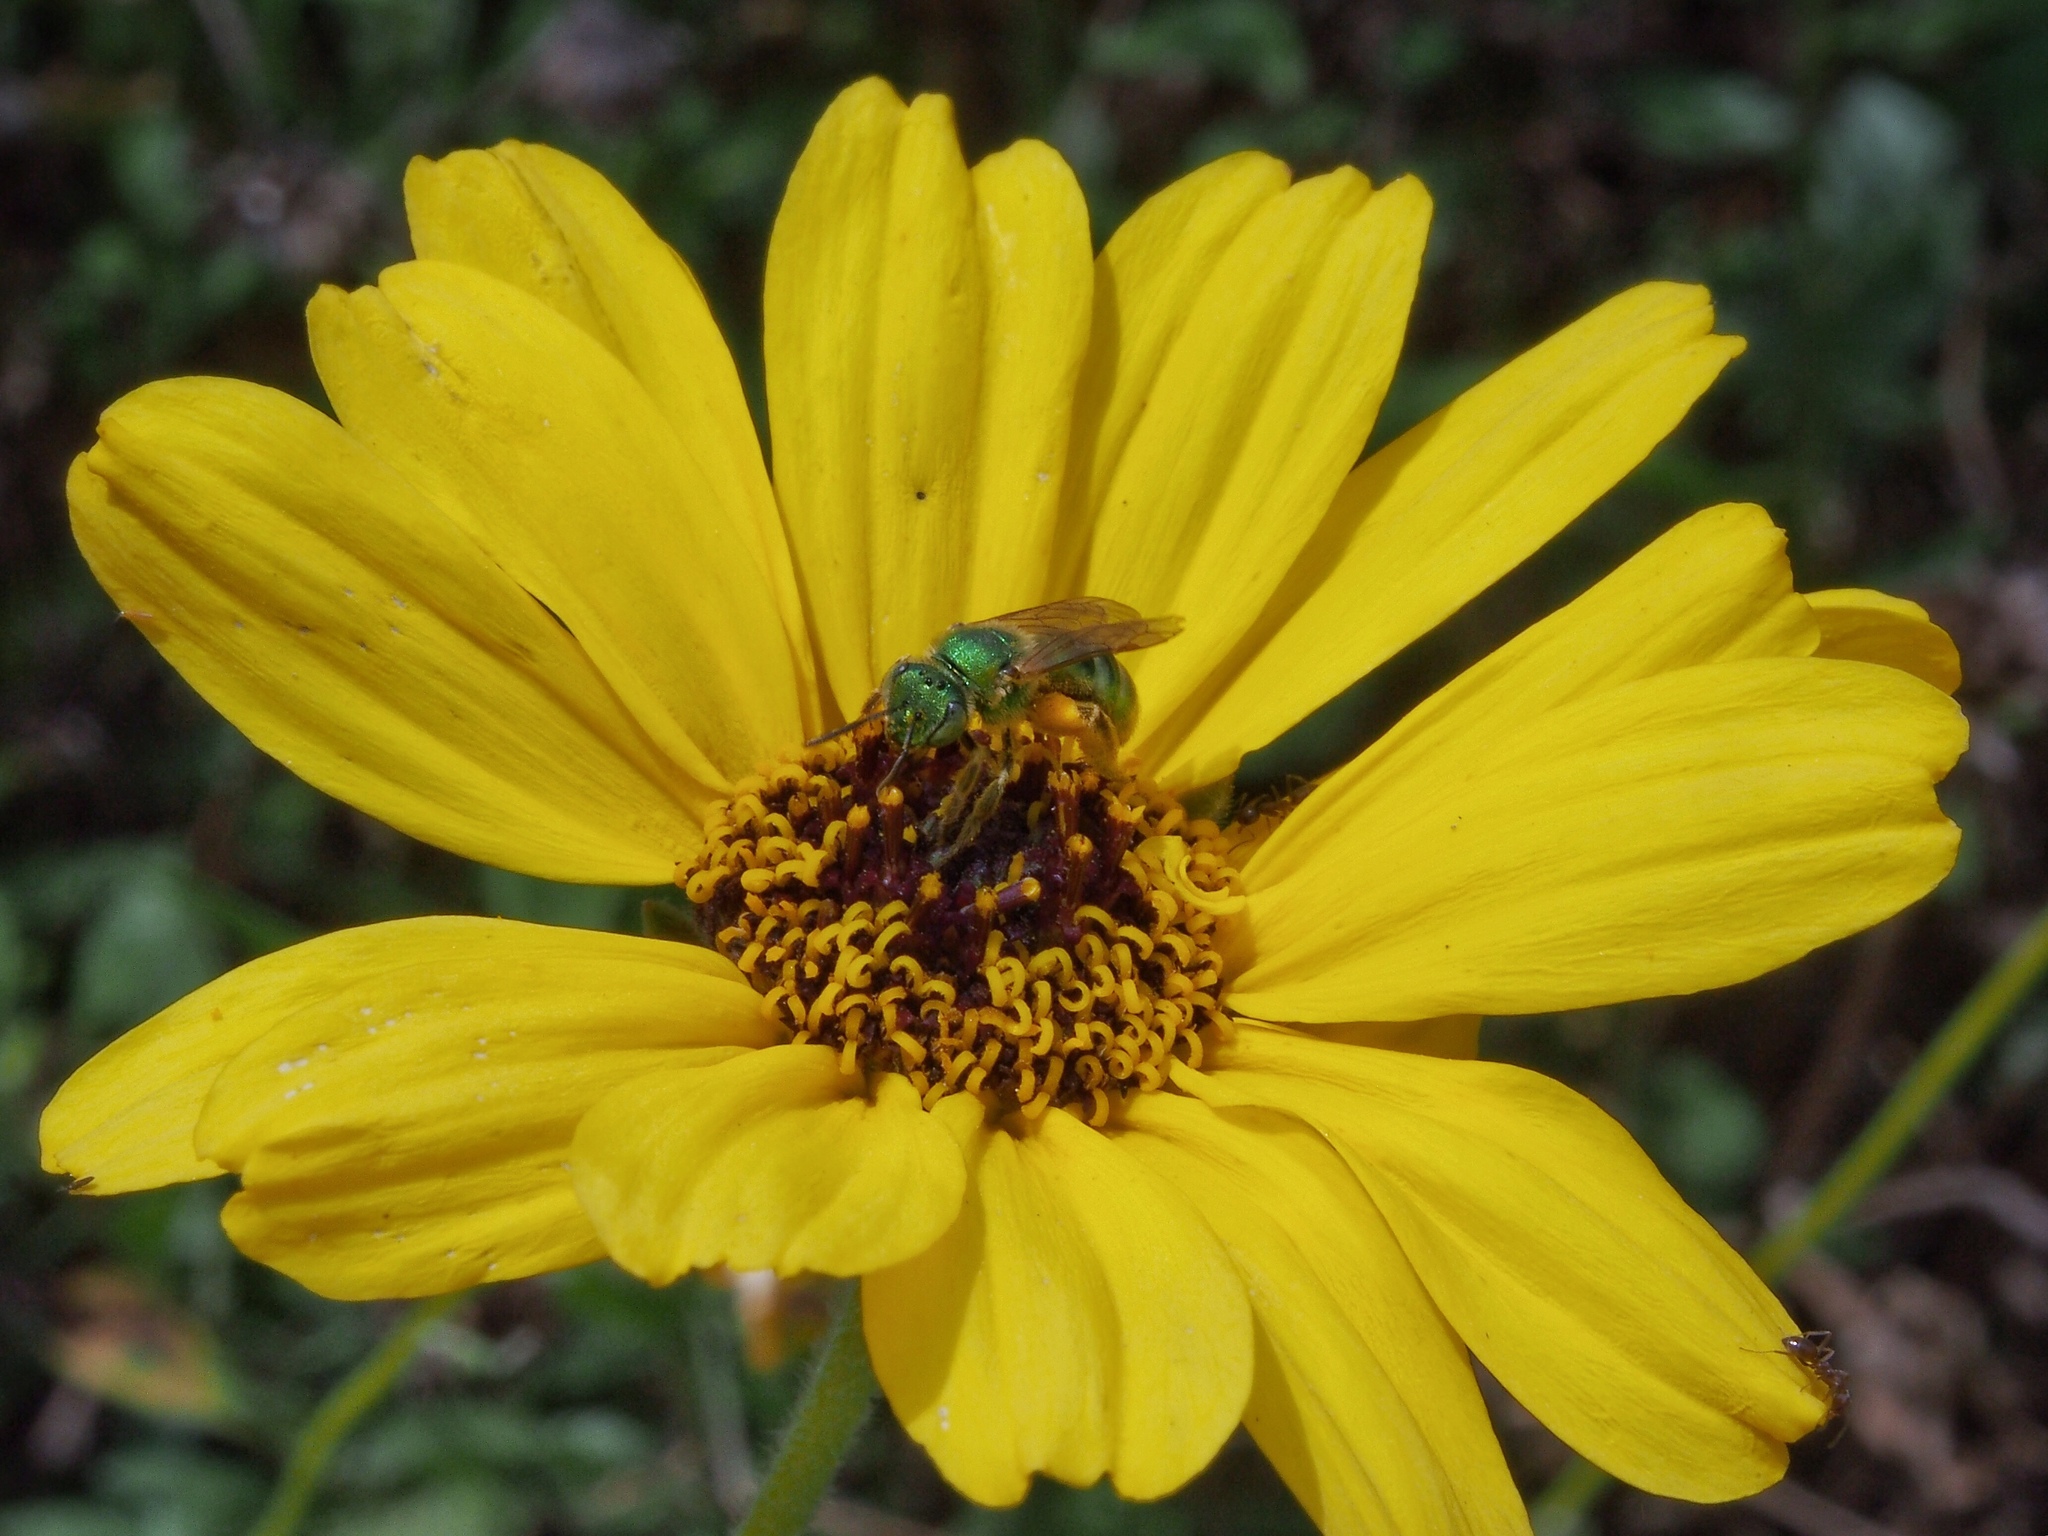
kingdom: Animalia
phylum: Arthropoda
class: Insecta
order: Hymenoptera
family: Halictidae
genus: Agapostemon
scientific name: Agapostemon texanus
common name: Texas striped sweat bee
